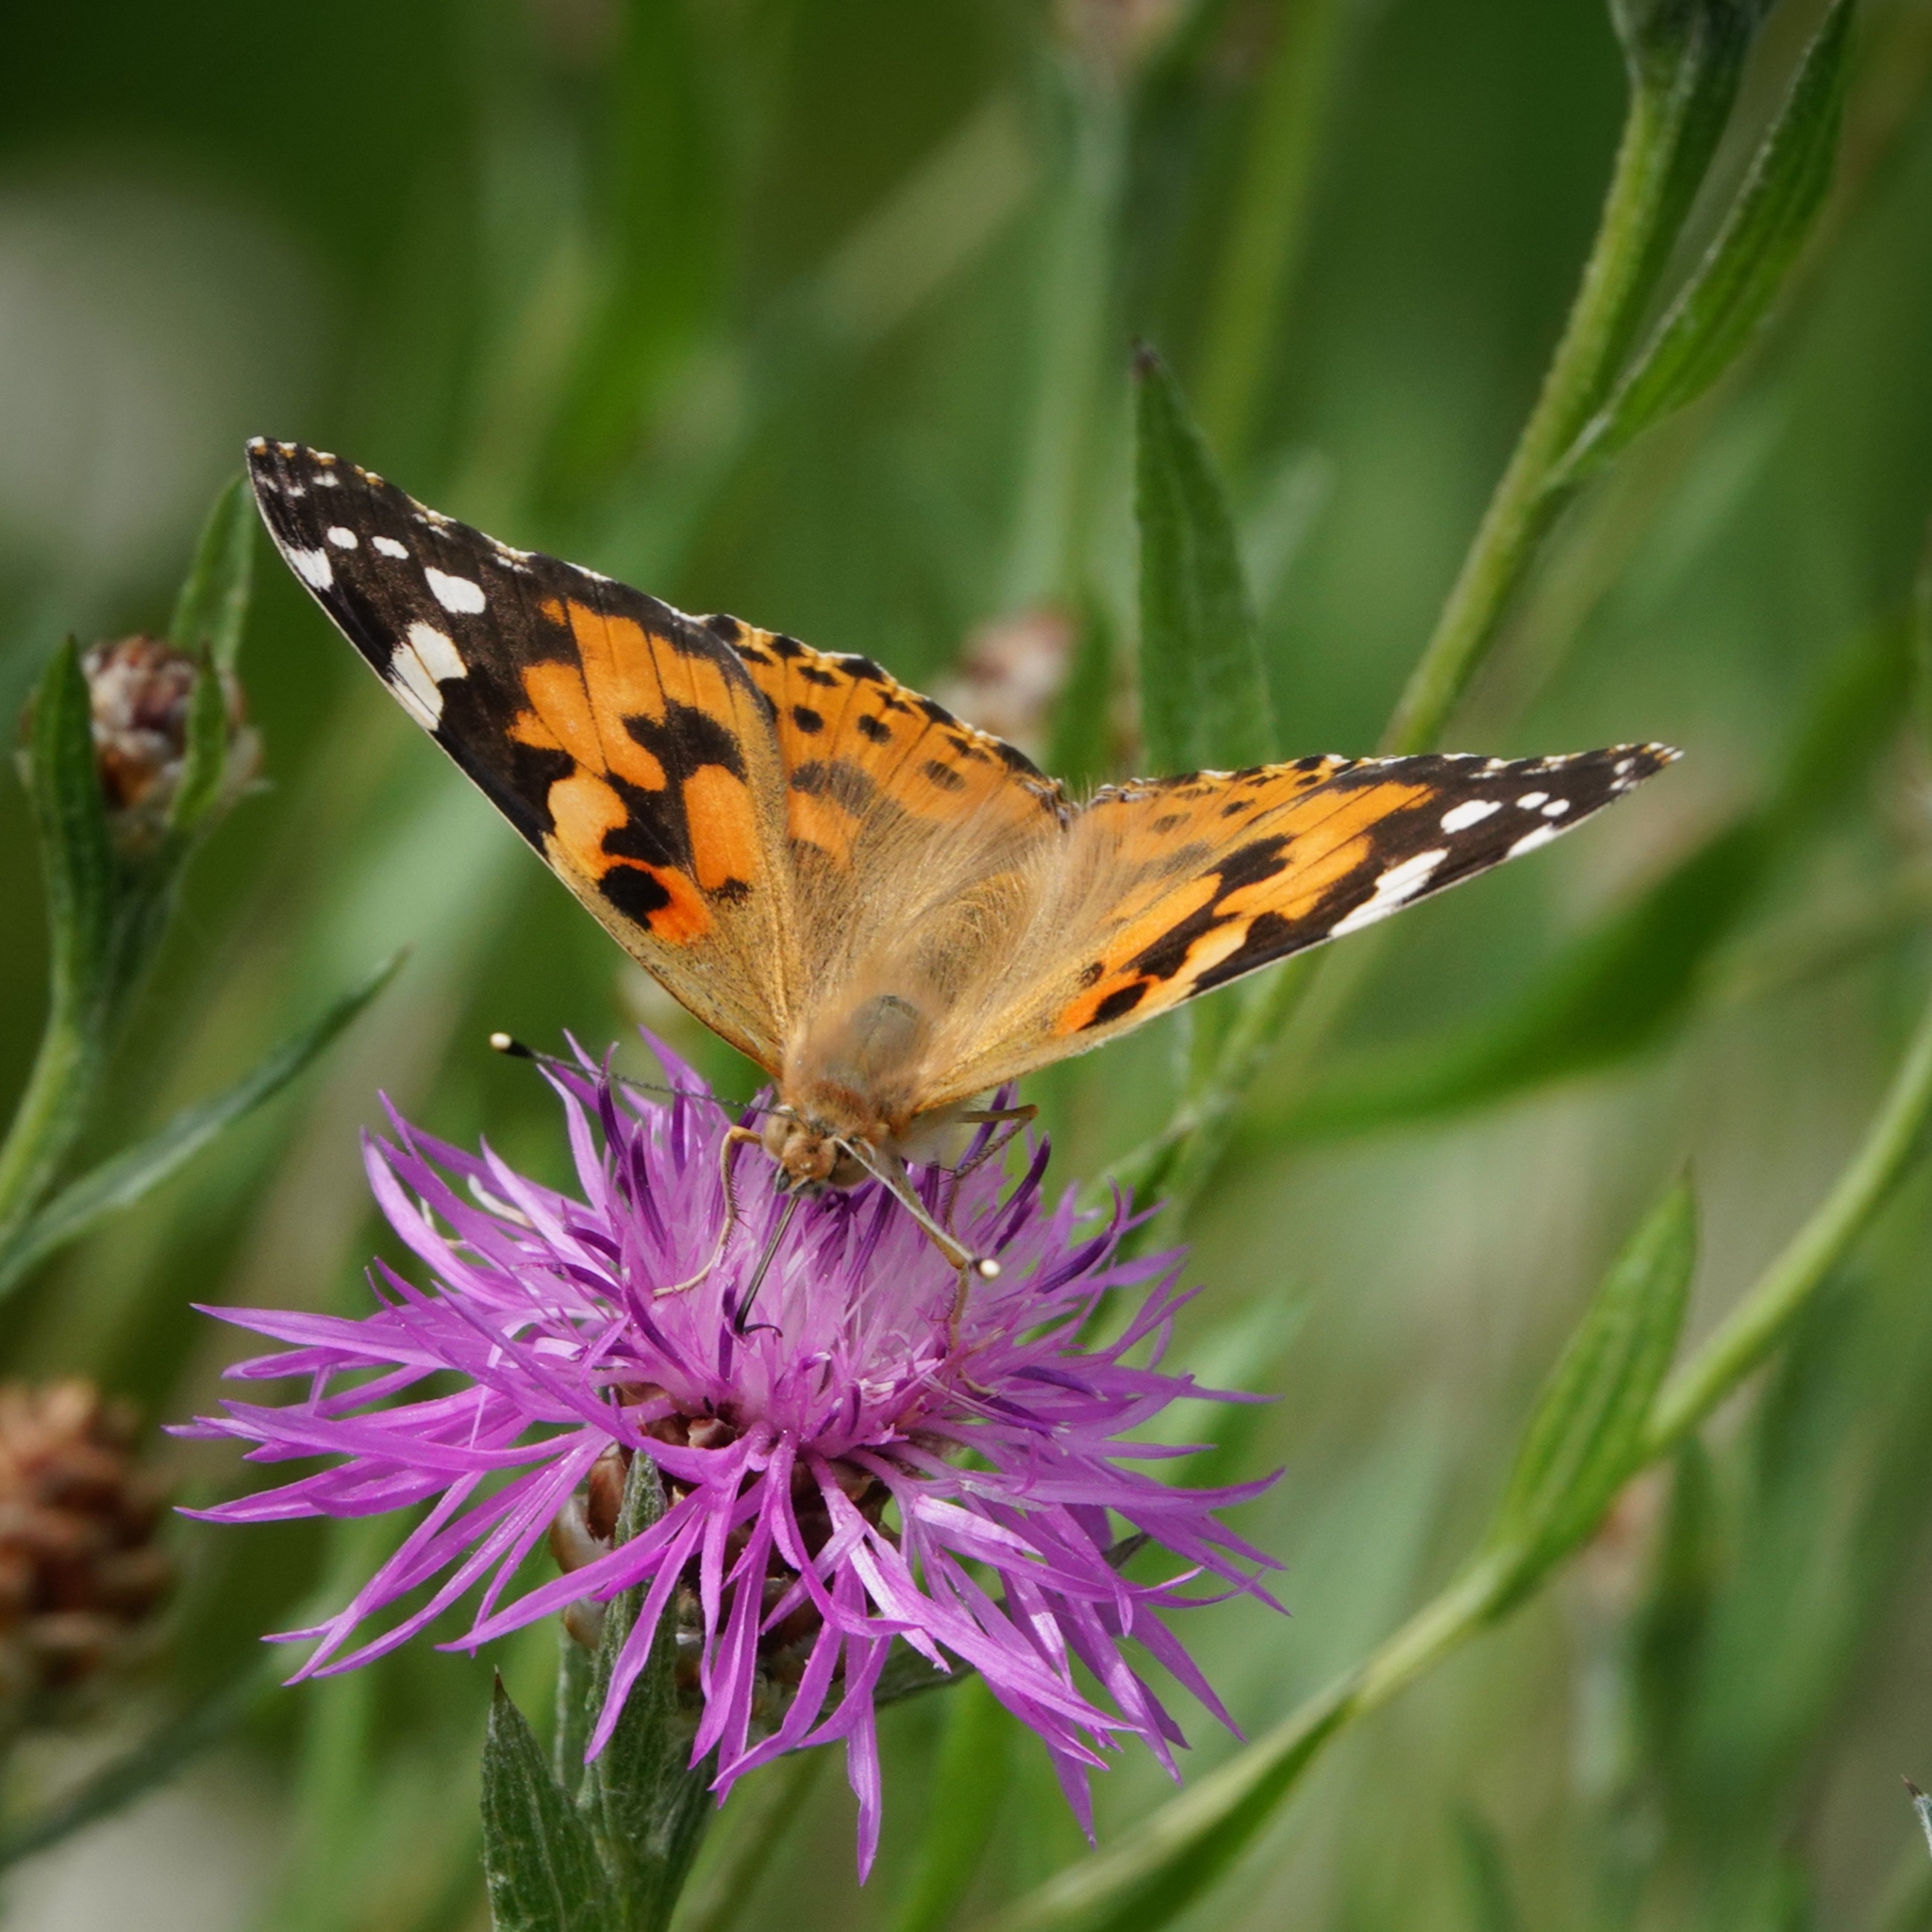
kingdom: Animalia
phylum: Arthropoda
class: Insecta
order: Lepidoptera
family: Nymphalidae
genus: Vanessa
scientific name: Vanessa cardui
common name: Painted lady
